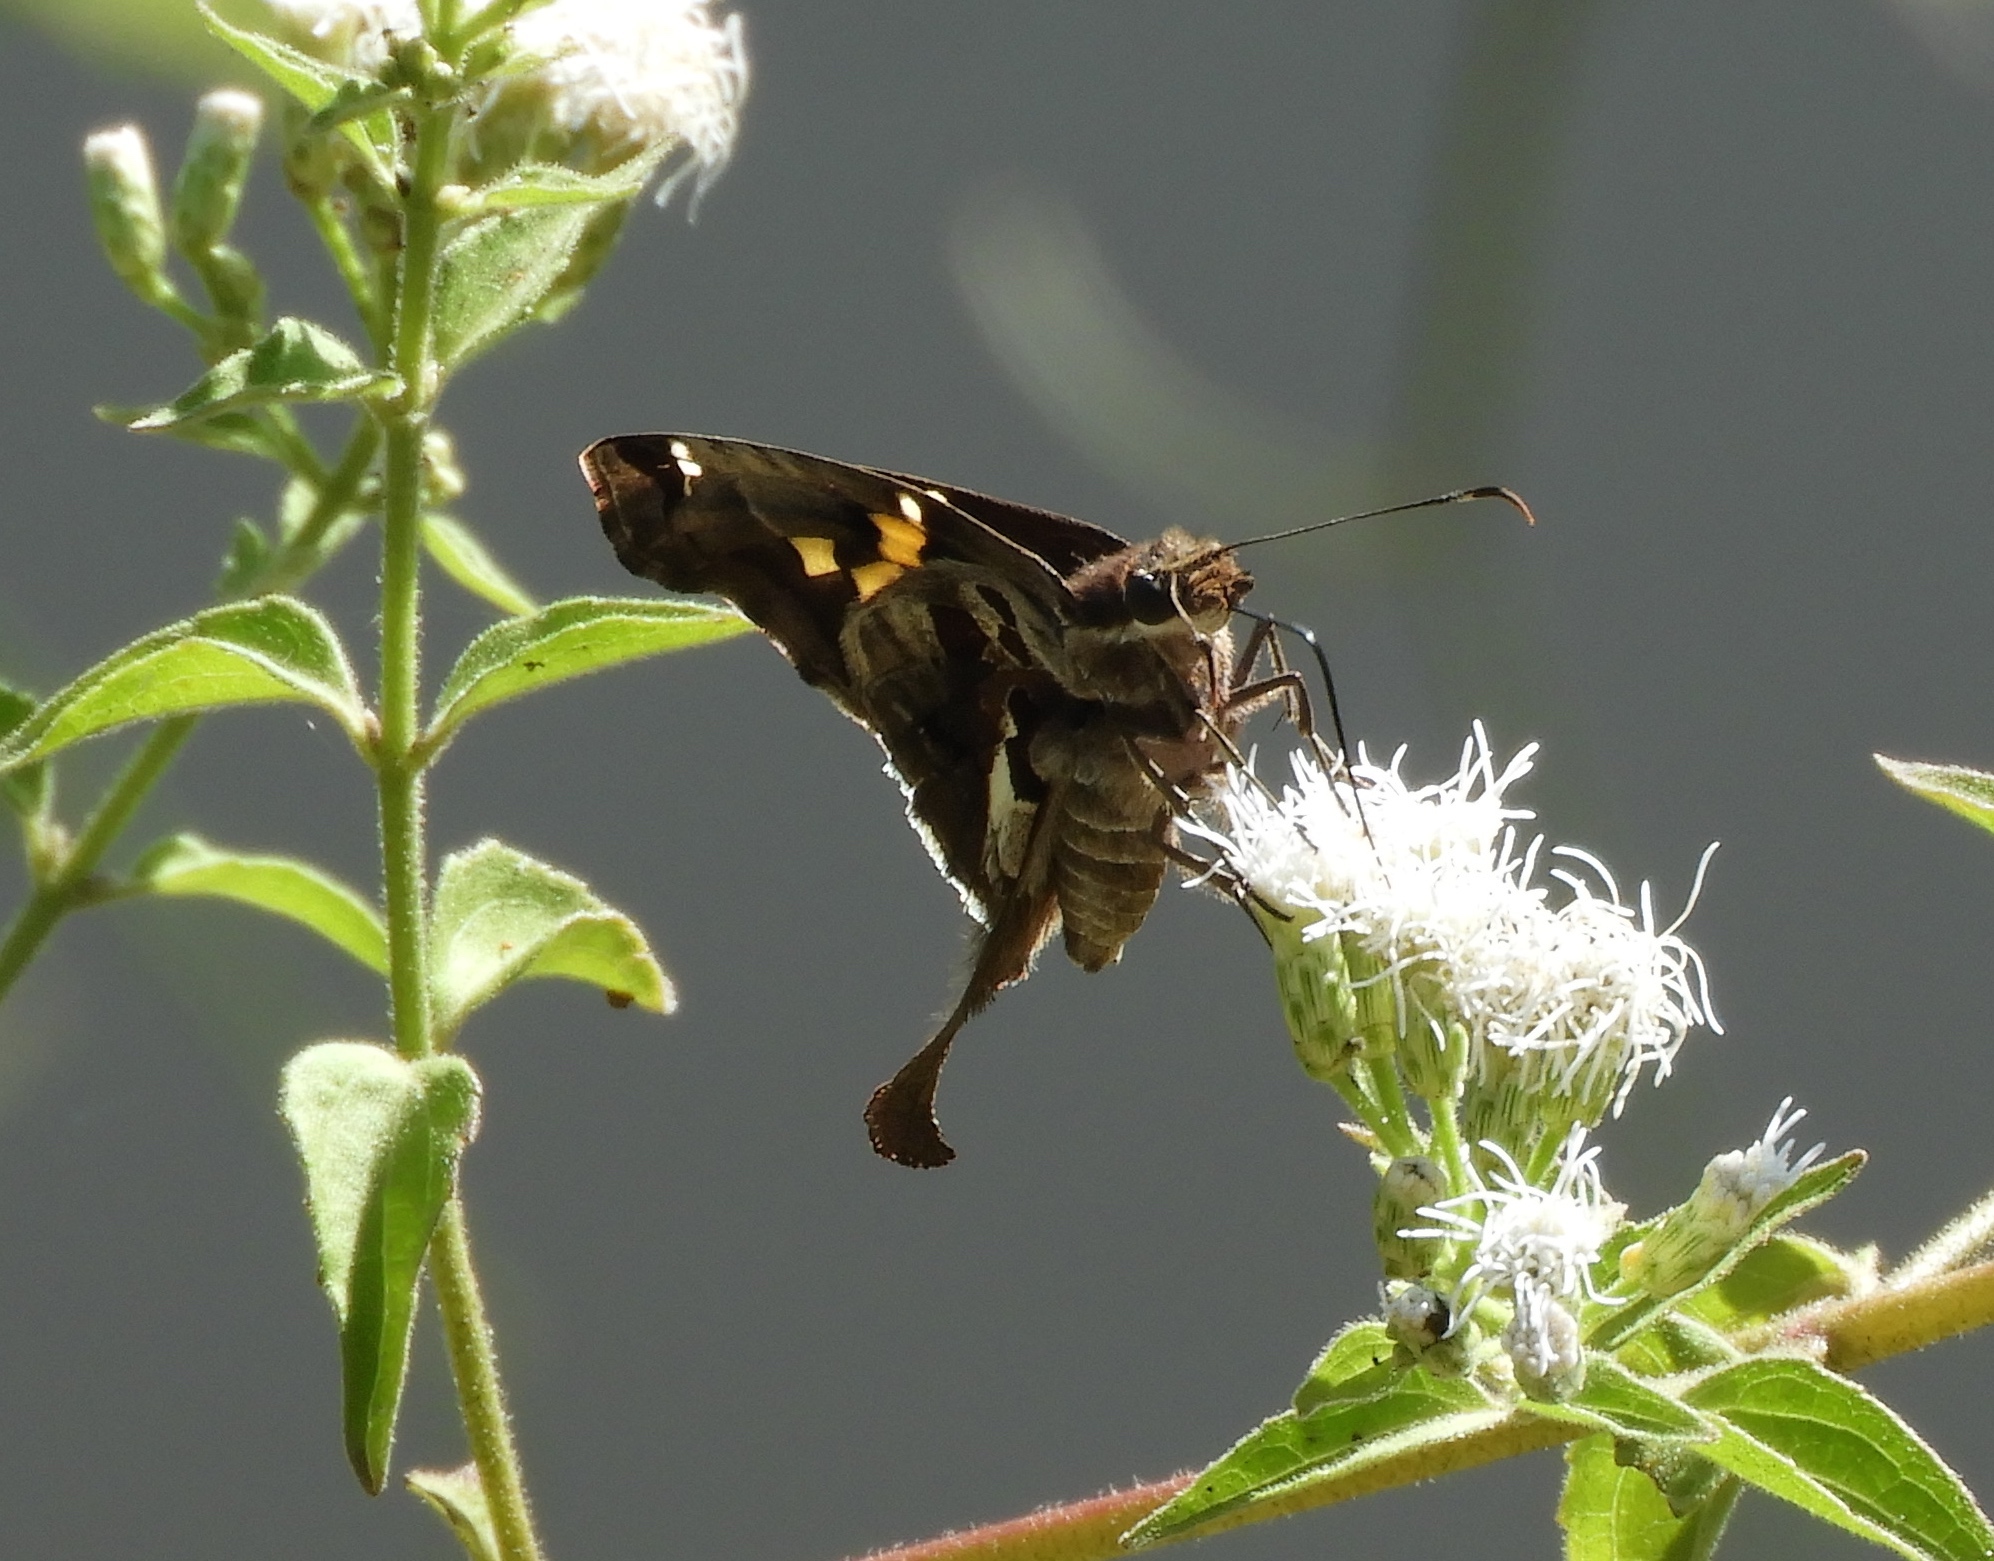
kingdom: Animalia
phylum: Arthropoda
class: Insecta
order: Lepidoptera
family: Hesperiidae
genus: Chioides
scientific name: Chioides zilpa
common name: Zilpa longtail
